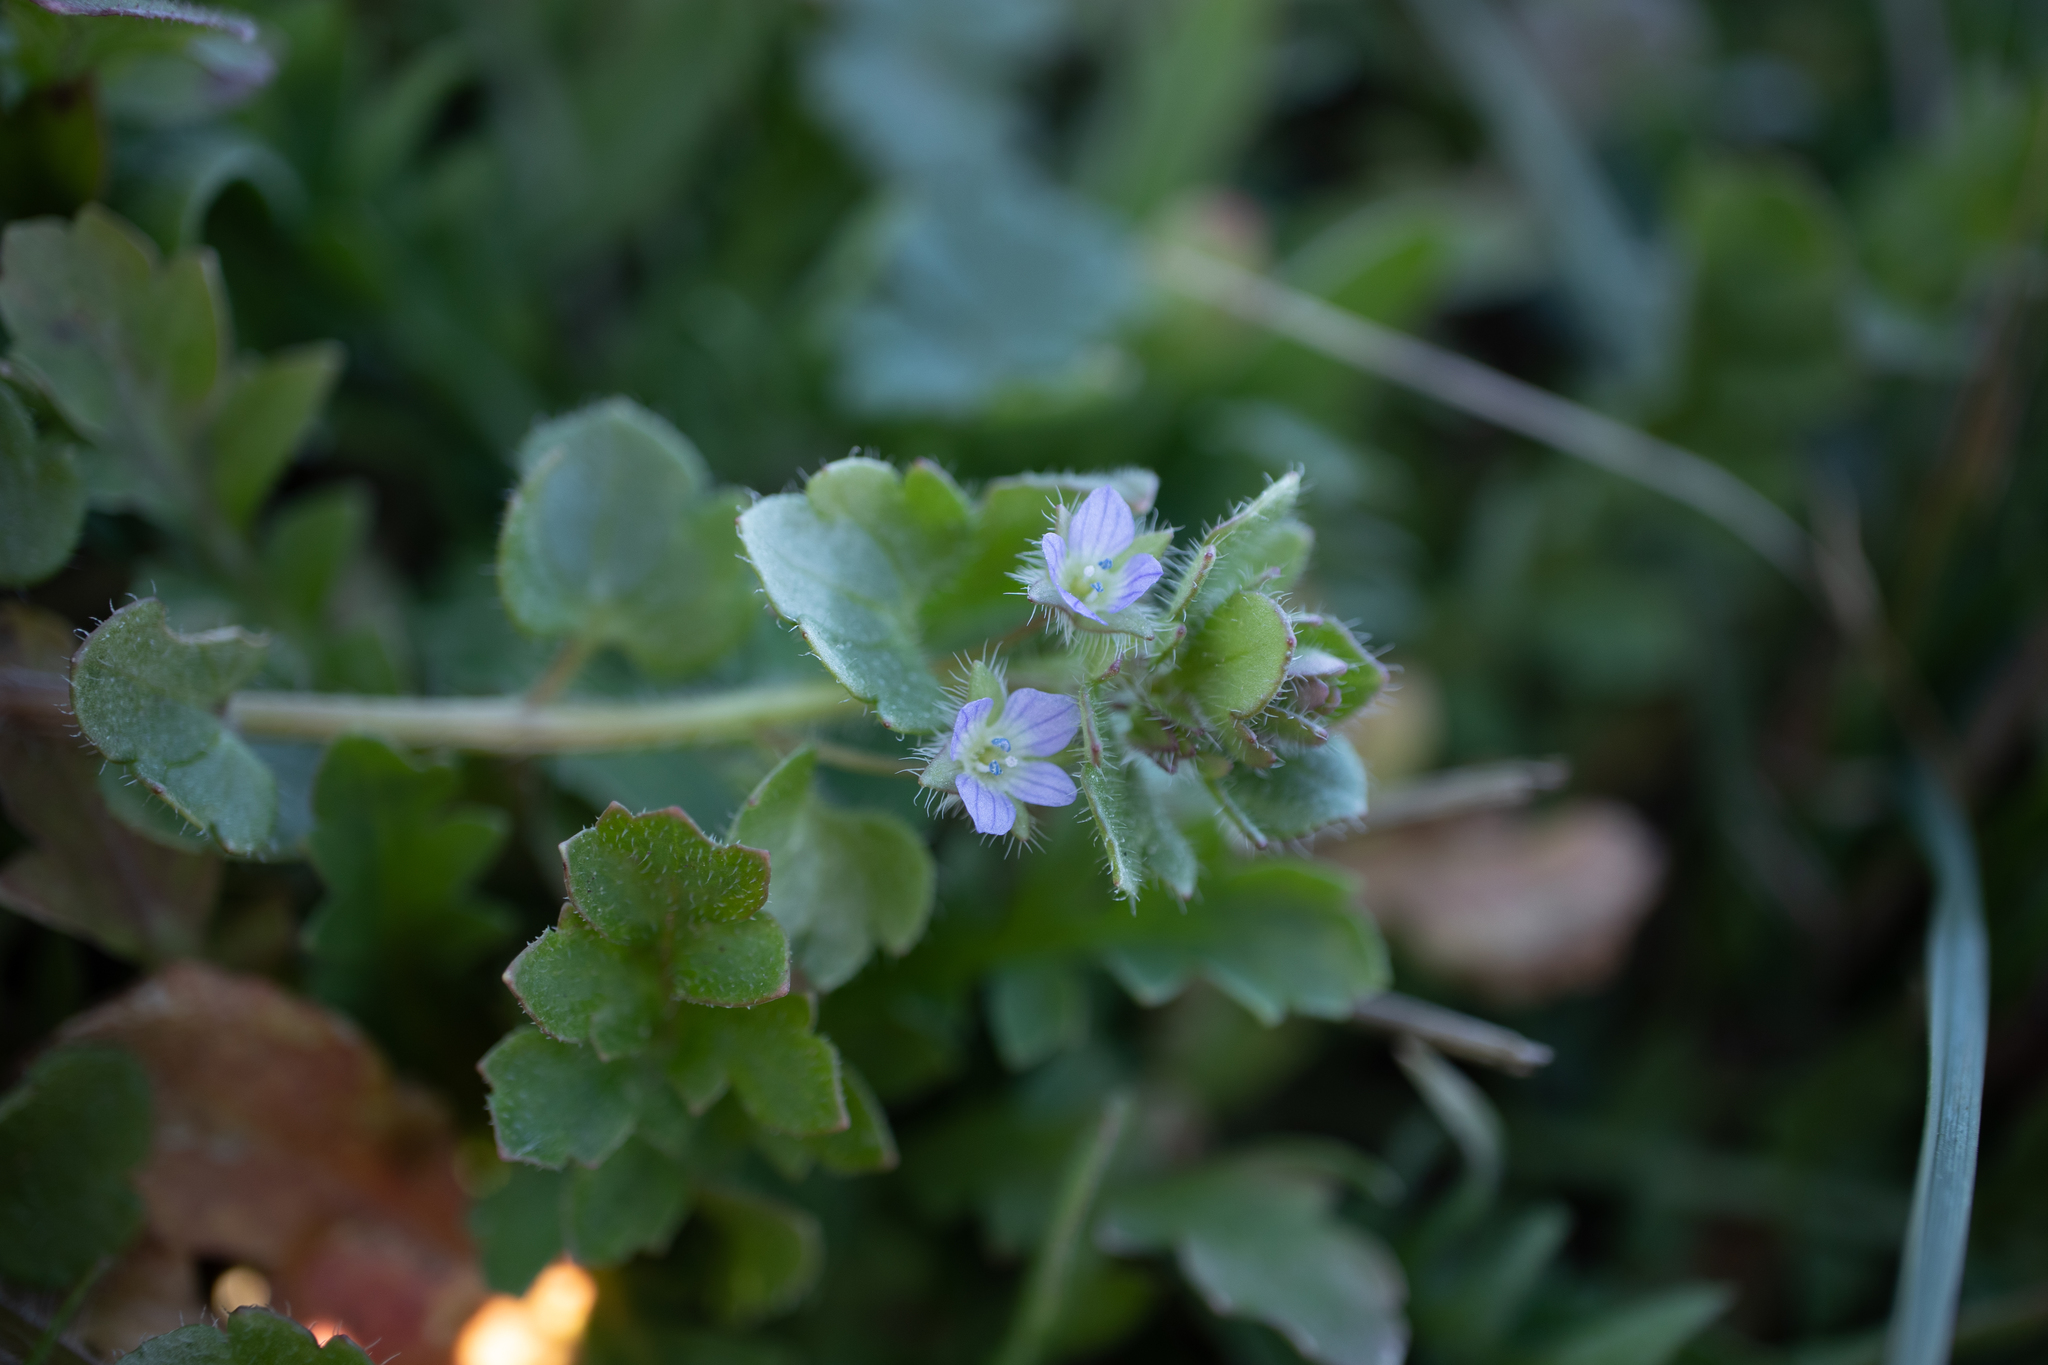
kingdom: Plantae
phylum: Tracheophyta
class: Magnoliopsida
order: Lamiales
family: Plantaginaceae
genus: Veronica
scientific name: Veronica hederifolia
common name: Ivy-leaved speedwell
